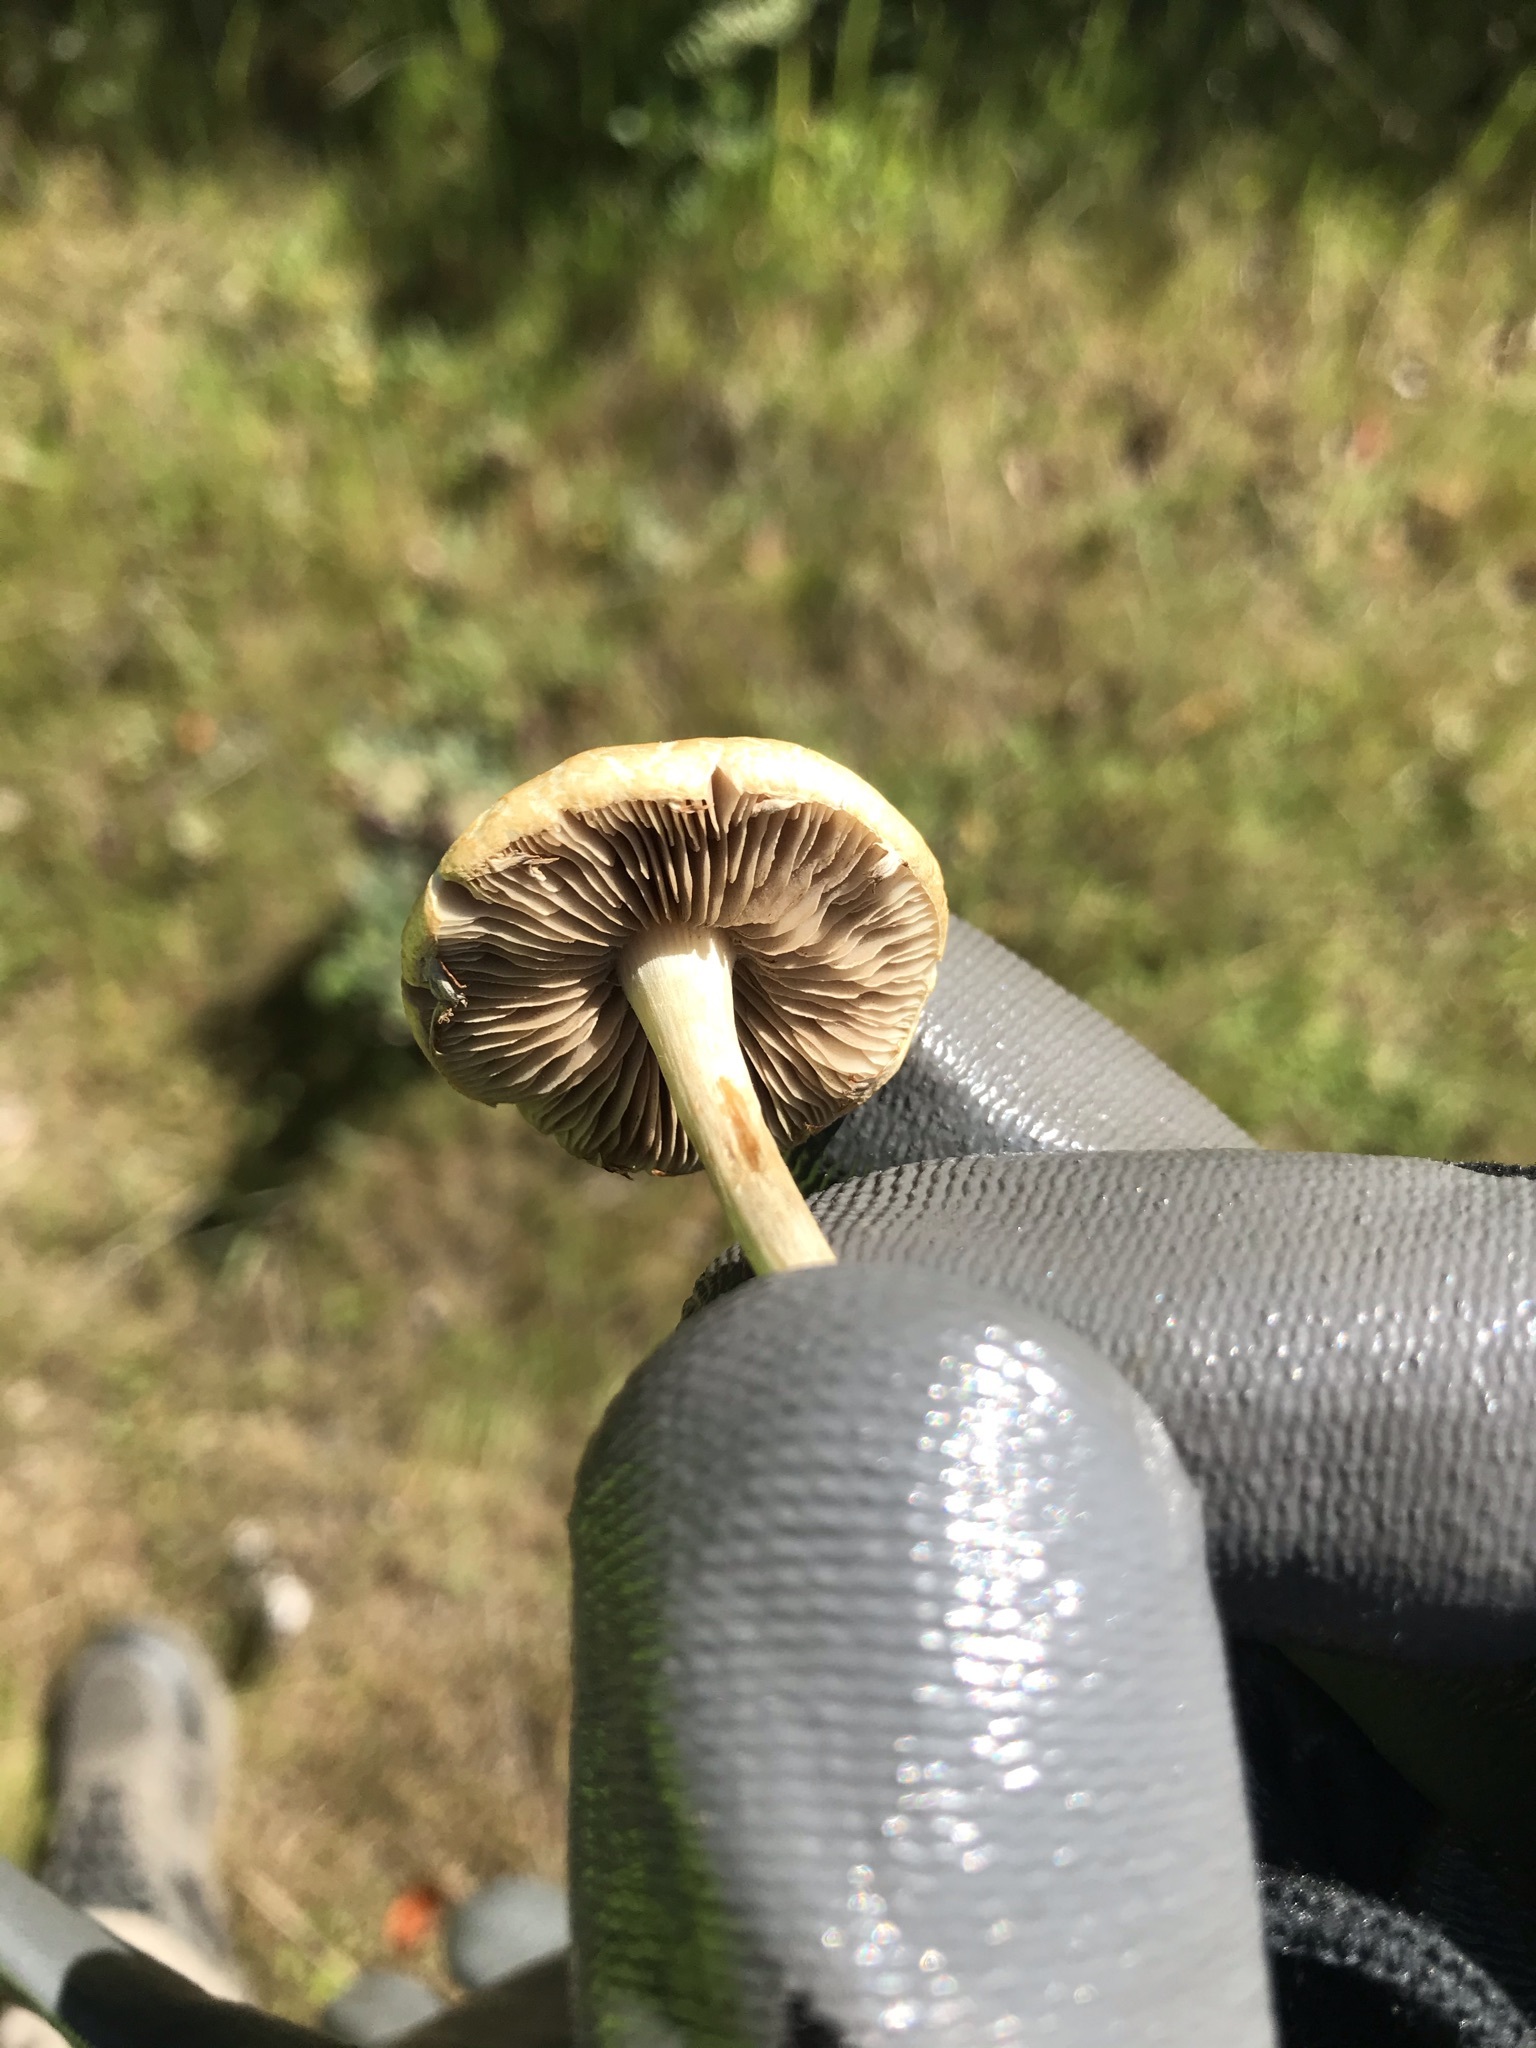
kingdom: Fungi
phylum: Basidiomycota
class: Agaricomycetes
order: Agaricales
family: Strophariaceae
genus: Agrocybe
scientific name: Agrocybe pediades
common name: Common fieldcap
